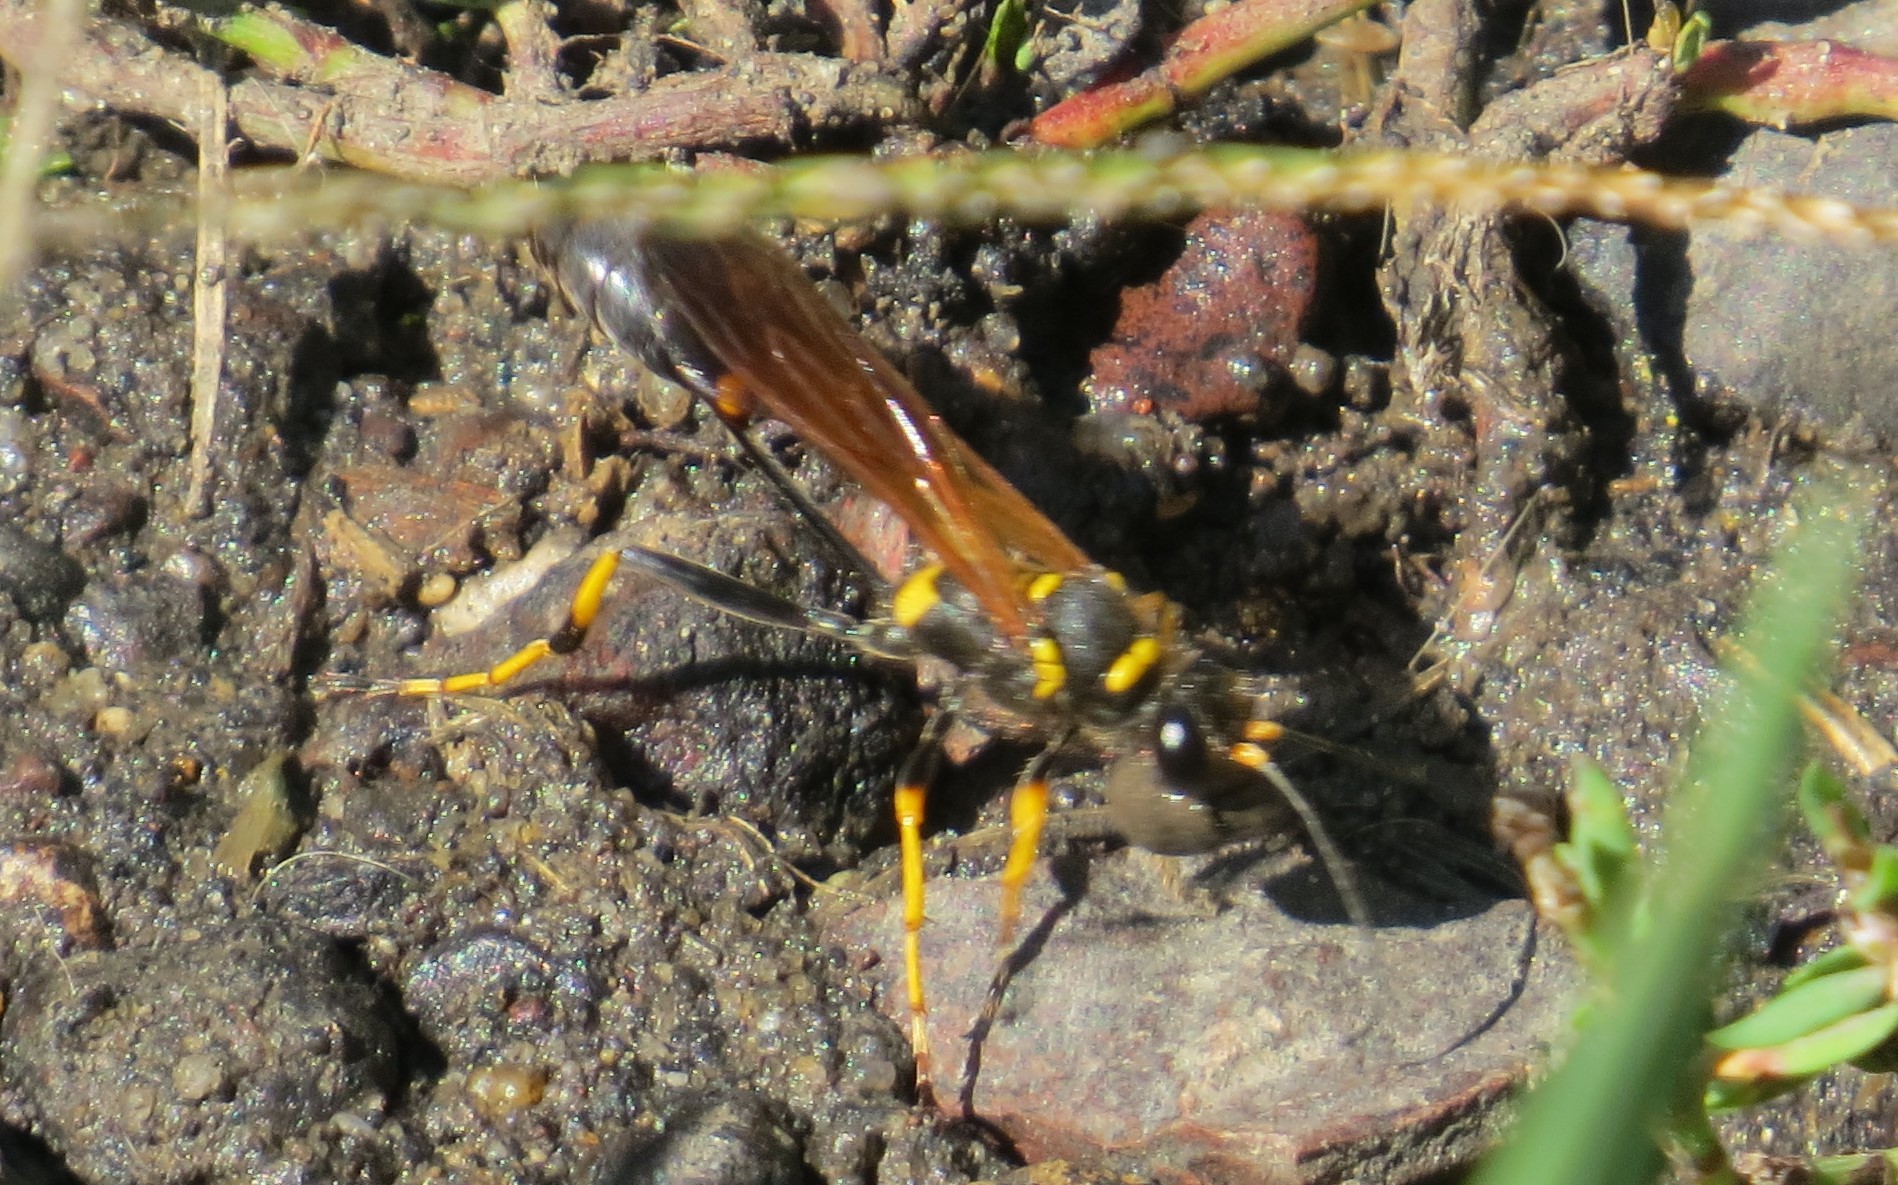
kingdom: Animalia
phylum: Arthropoda
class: Insecta
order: Hymenoptera
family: Sphecidae
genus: Sceliphron
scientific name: Sceliphron caementarium
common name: Mud dauber
